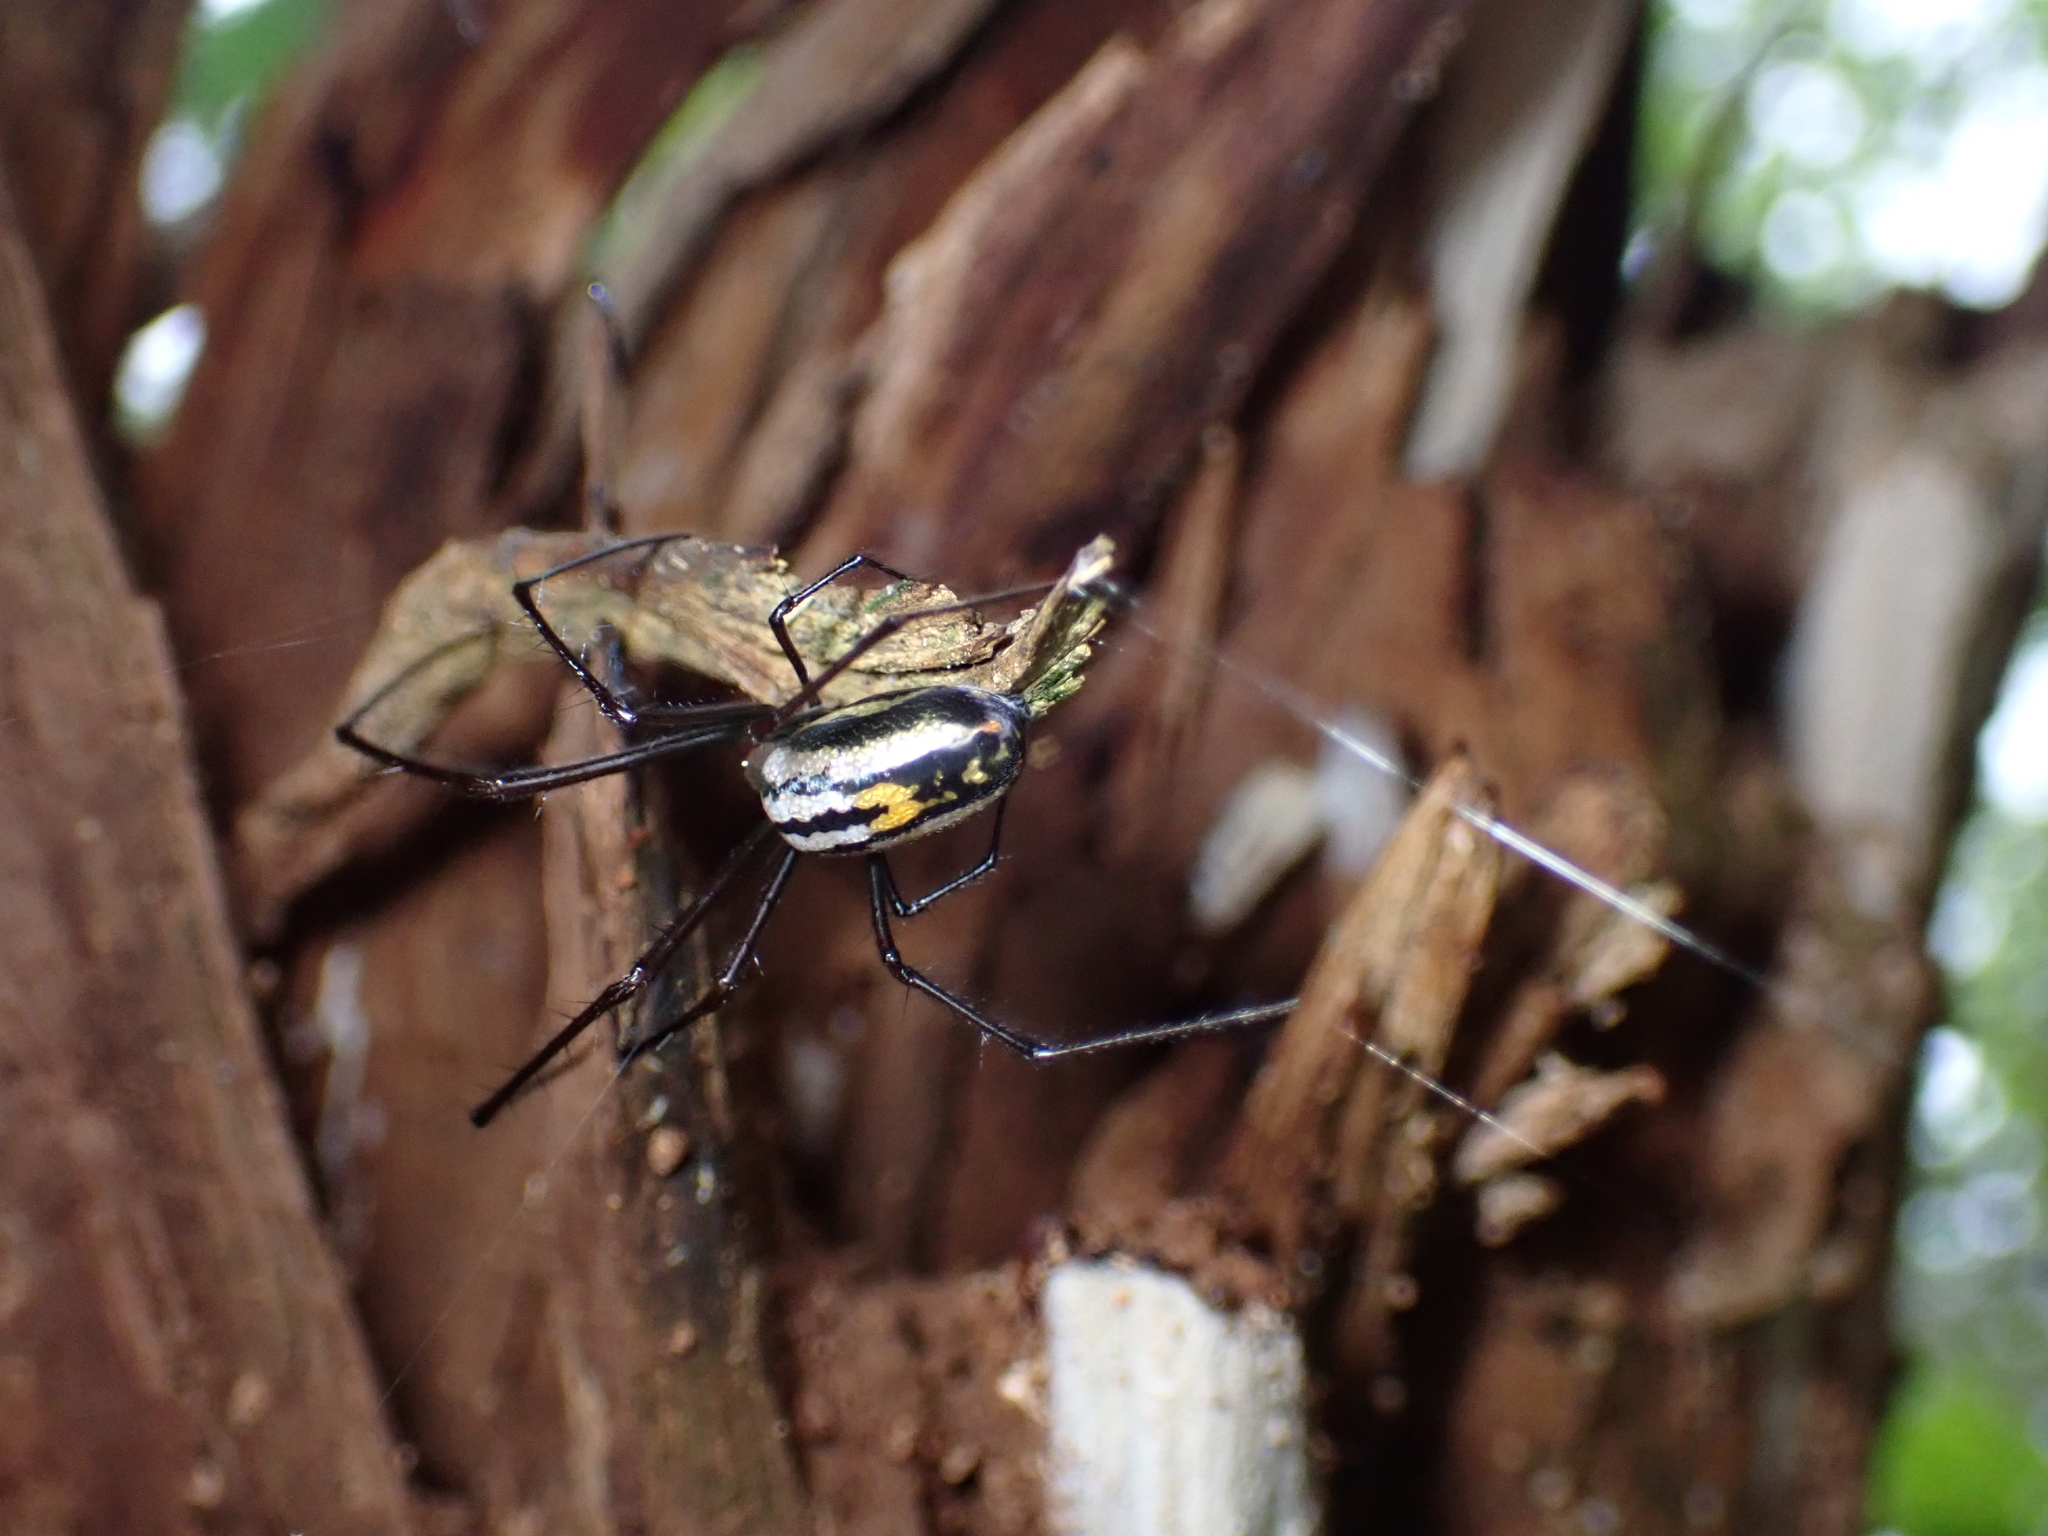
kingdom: Animalia
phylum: Arthropoda
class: Arachnida
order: Araneae
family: Tetragnathidae
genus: Leucauge
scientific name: Leucauge hebridisiana
